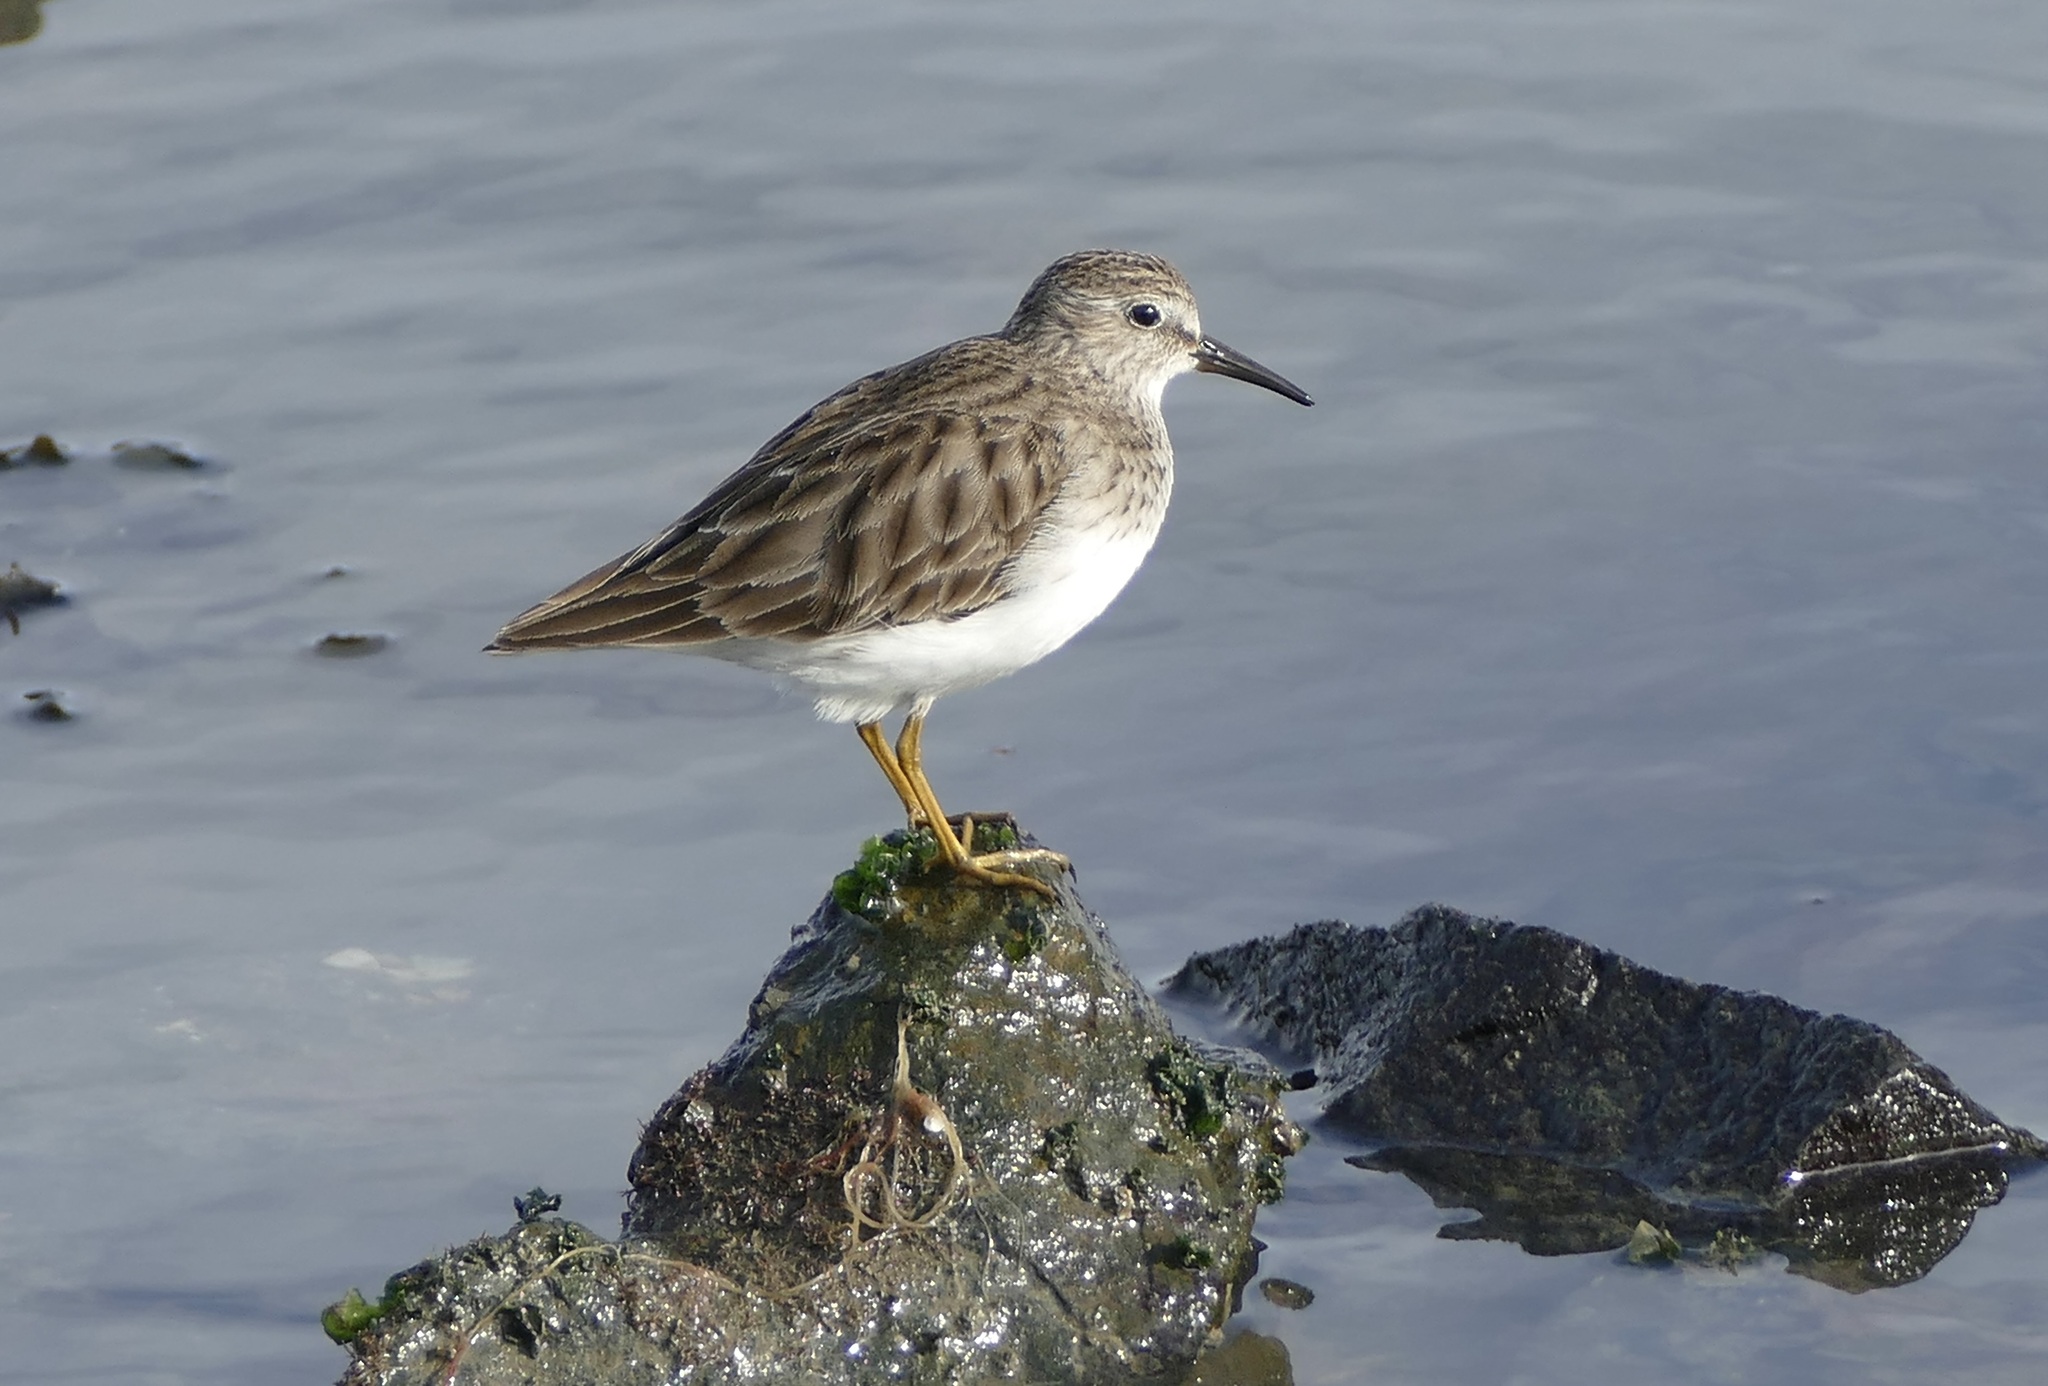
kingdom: Animalia
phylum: Chordata
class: Aves
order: Charadriiformes
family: Scolopacidae
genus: Calidris
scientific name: Calidris minutilla
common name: Least sandpiper
